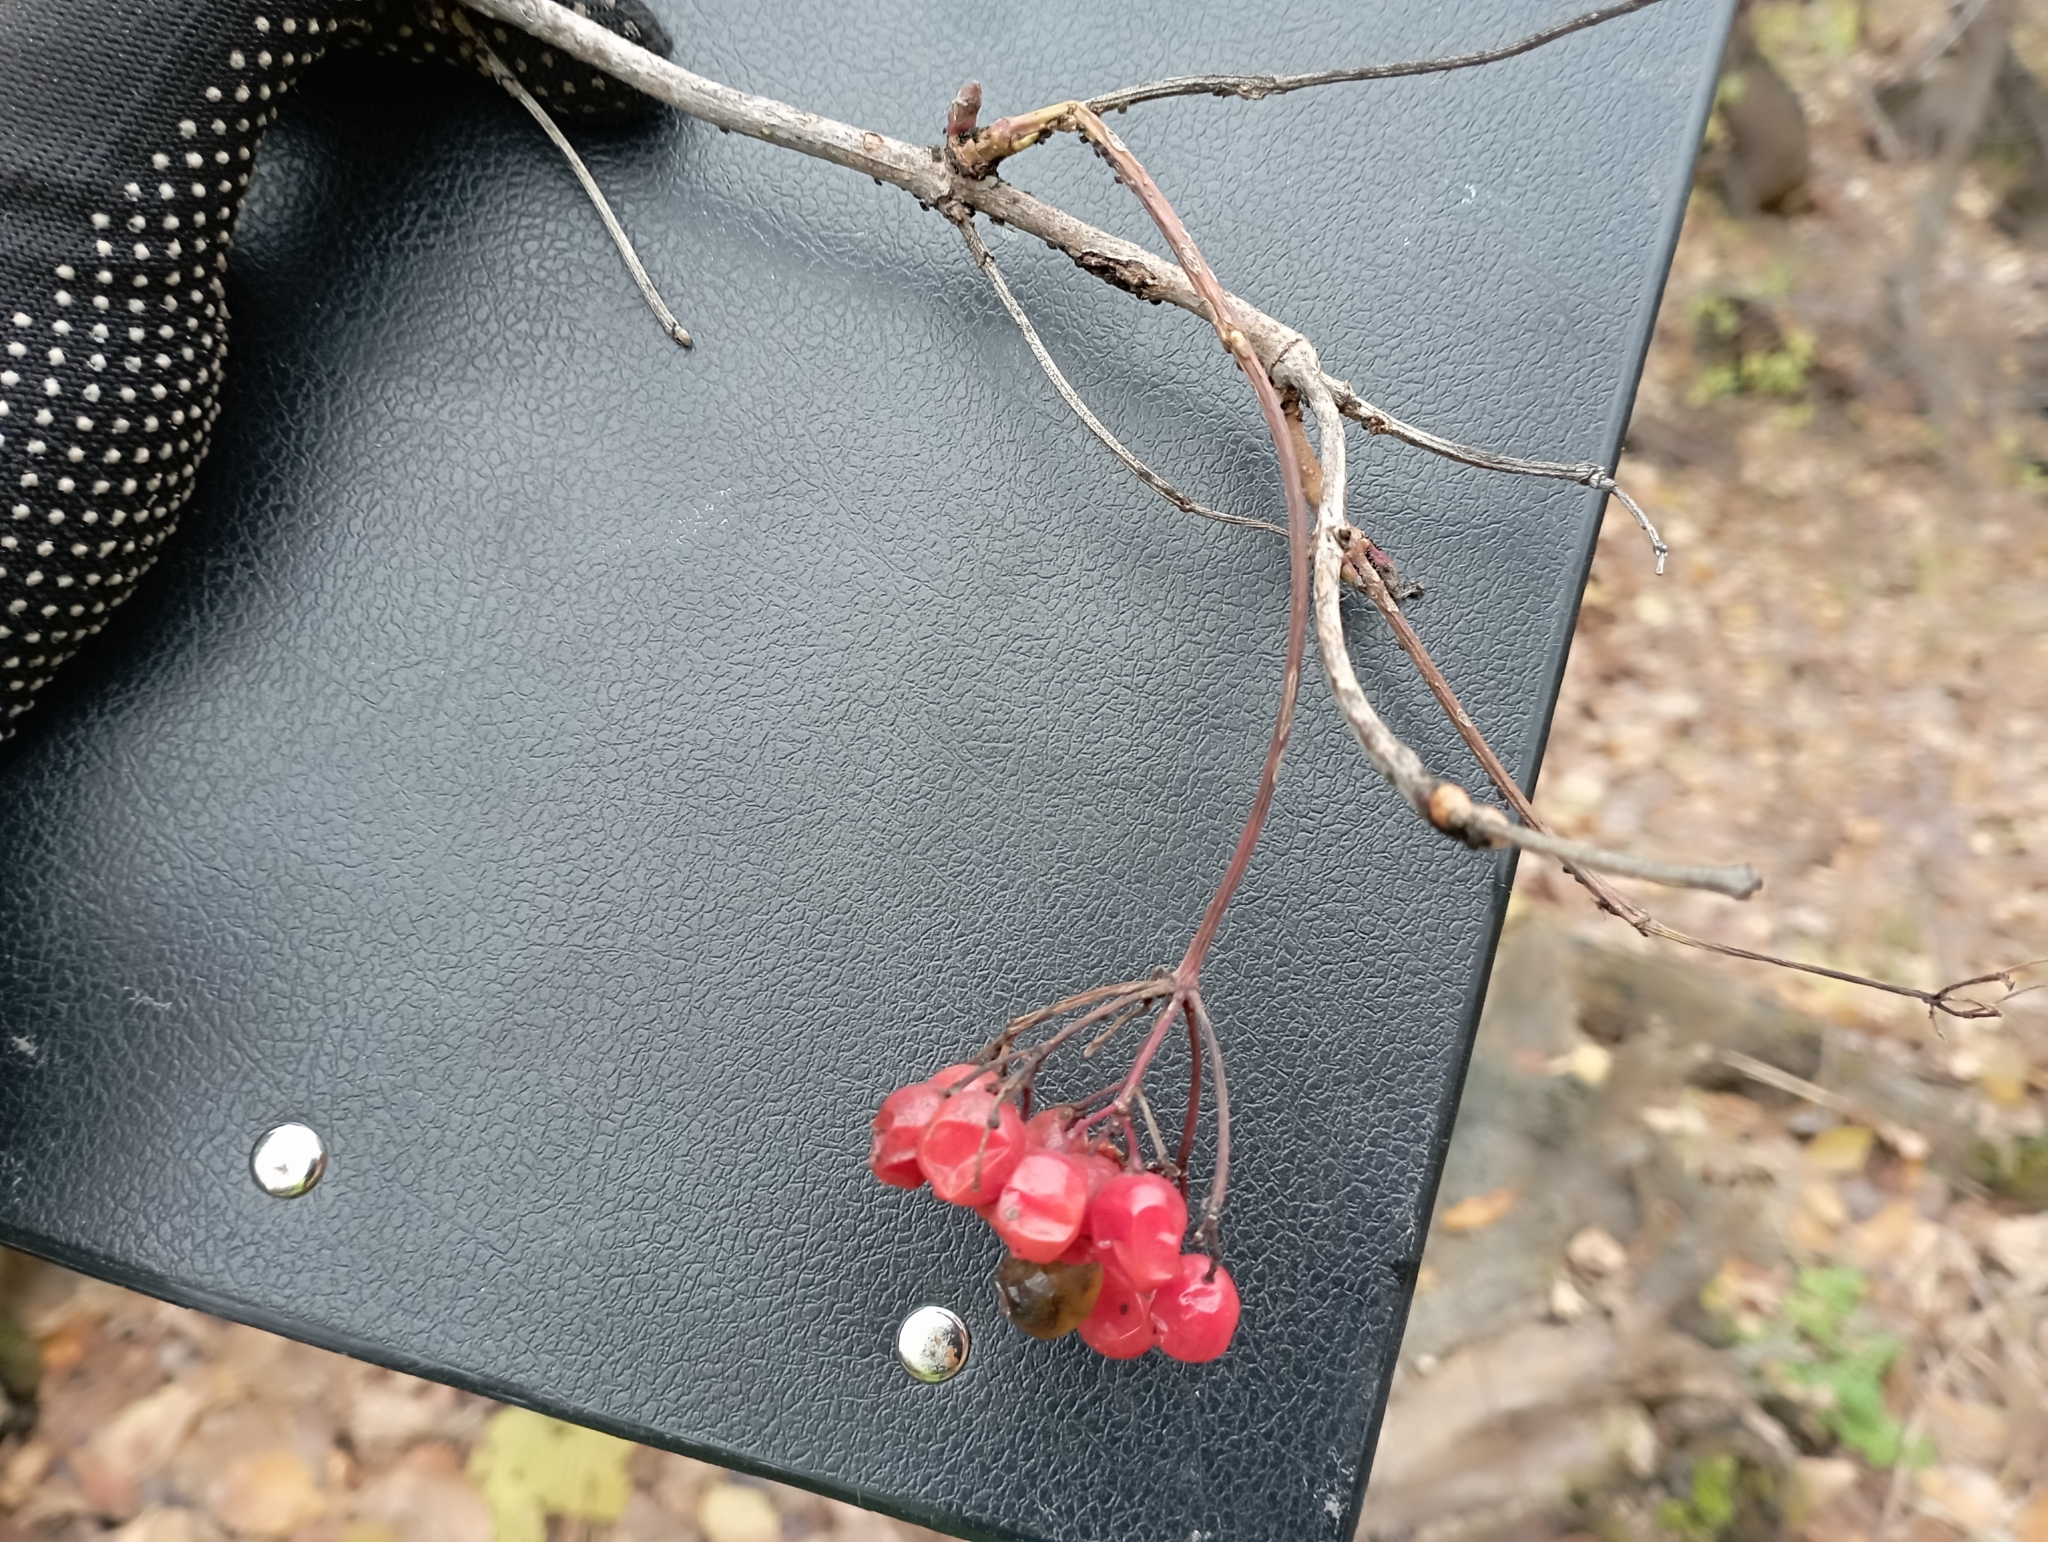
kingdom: Plantae
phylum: Tracheophyta
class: Magnoliopsida
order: Dipsacales
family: Viburnaceae
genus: Viburnum
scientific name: Viburnum opulus
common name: Guelder-rose
